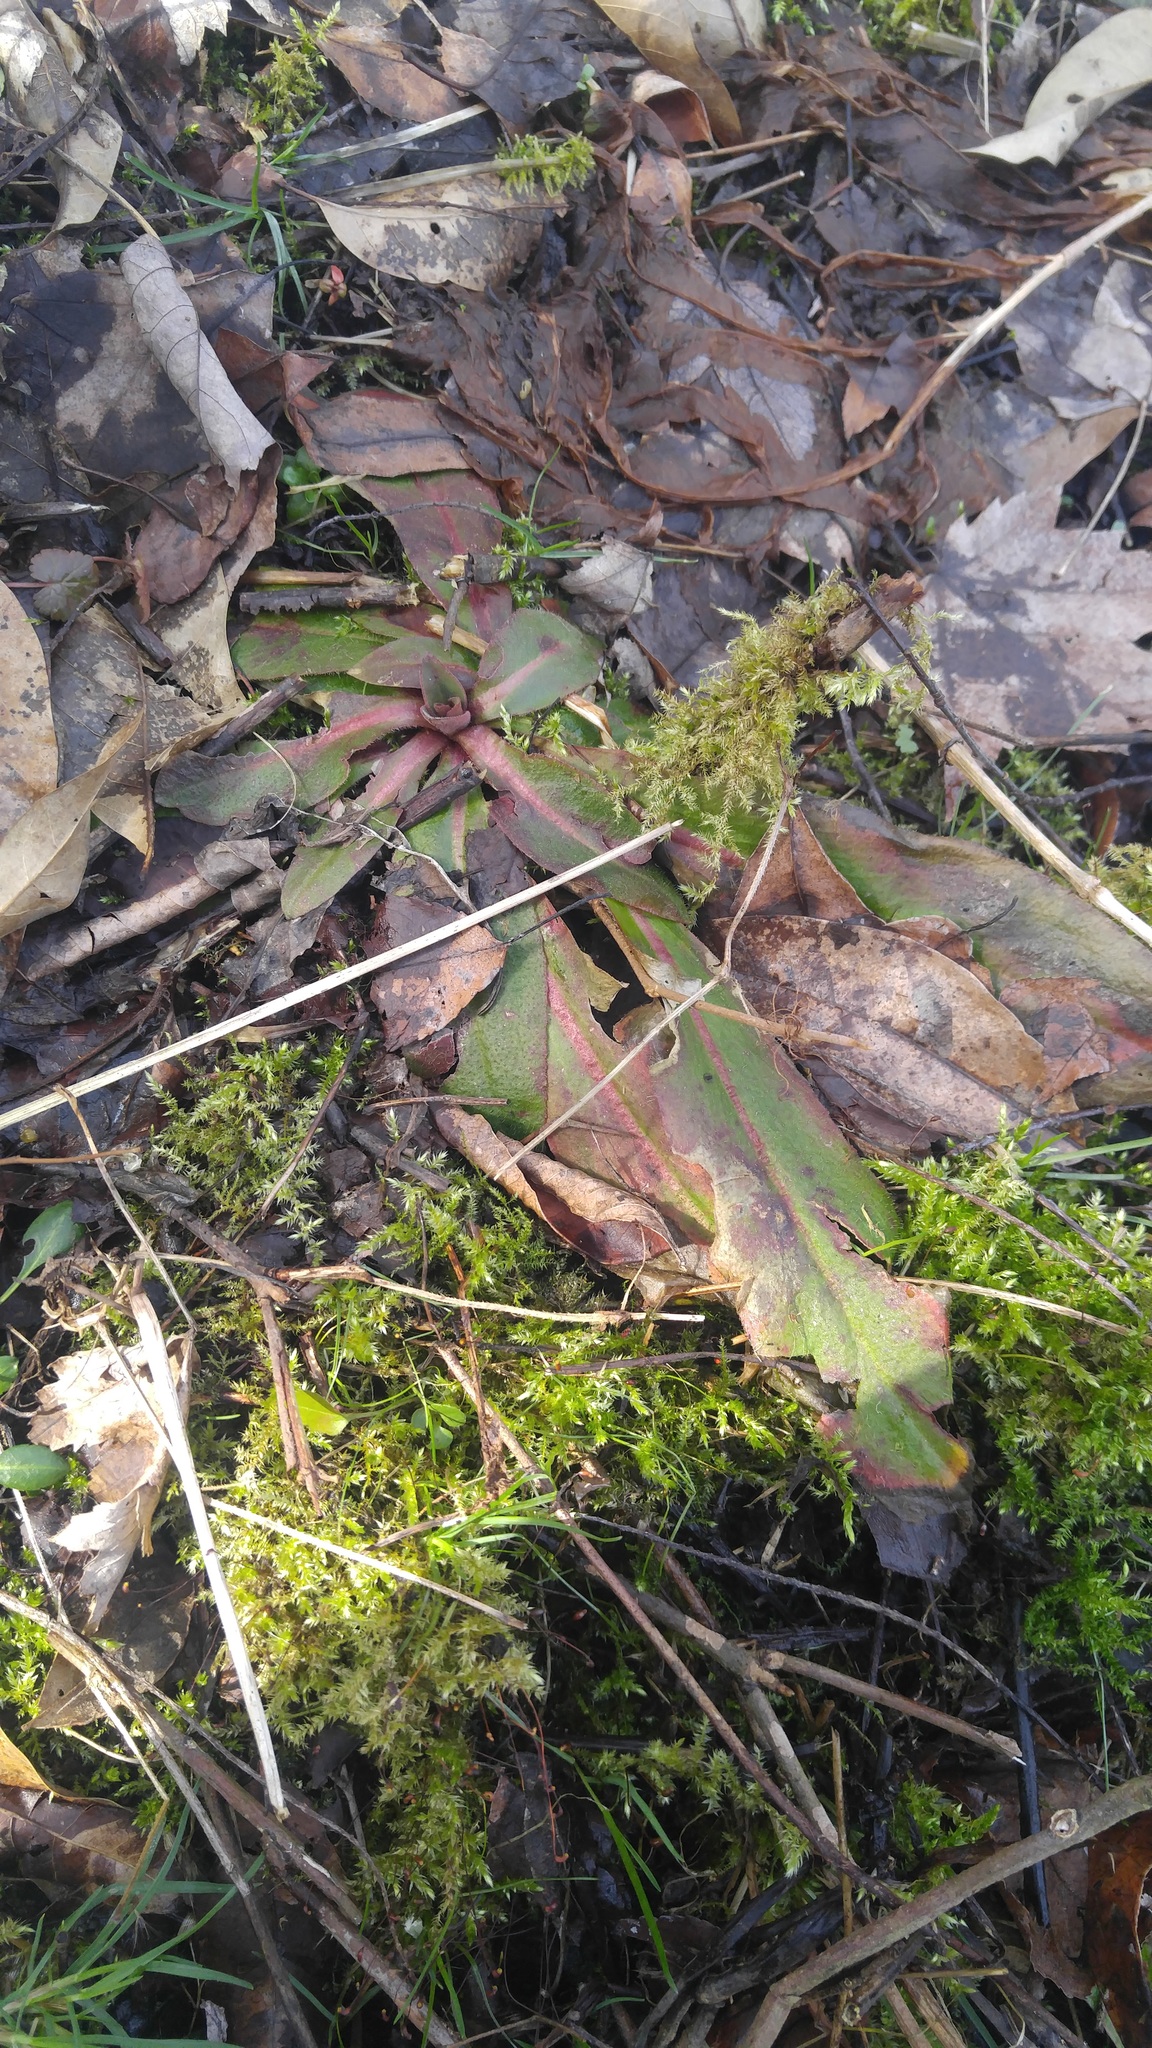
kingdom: Plantae
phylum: Tracheophyta
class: Magnoliopsida
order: Saxifragales
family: Saxifragaceae
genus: Micranthes
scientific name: Micranthes pensylvanica
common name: Marsh saxifrage
